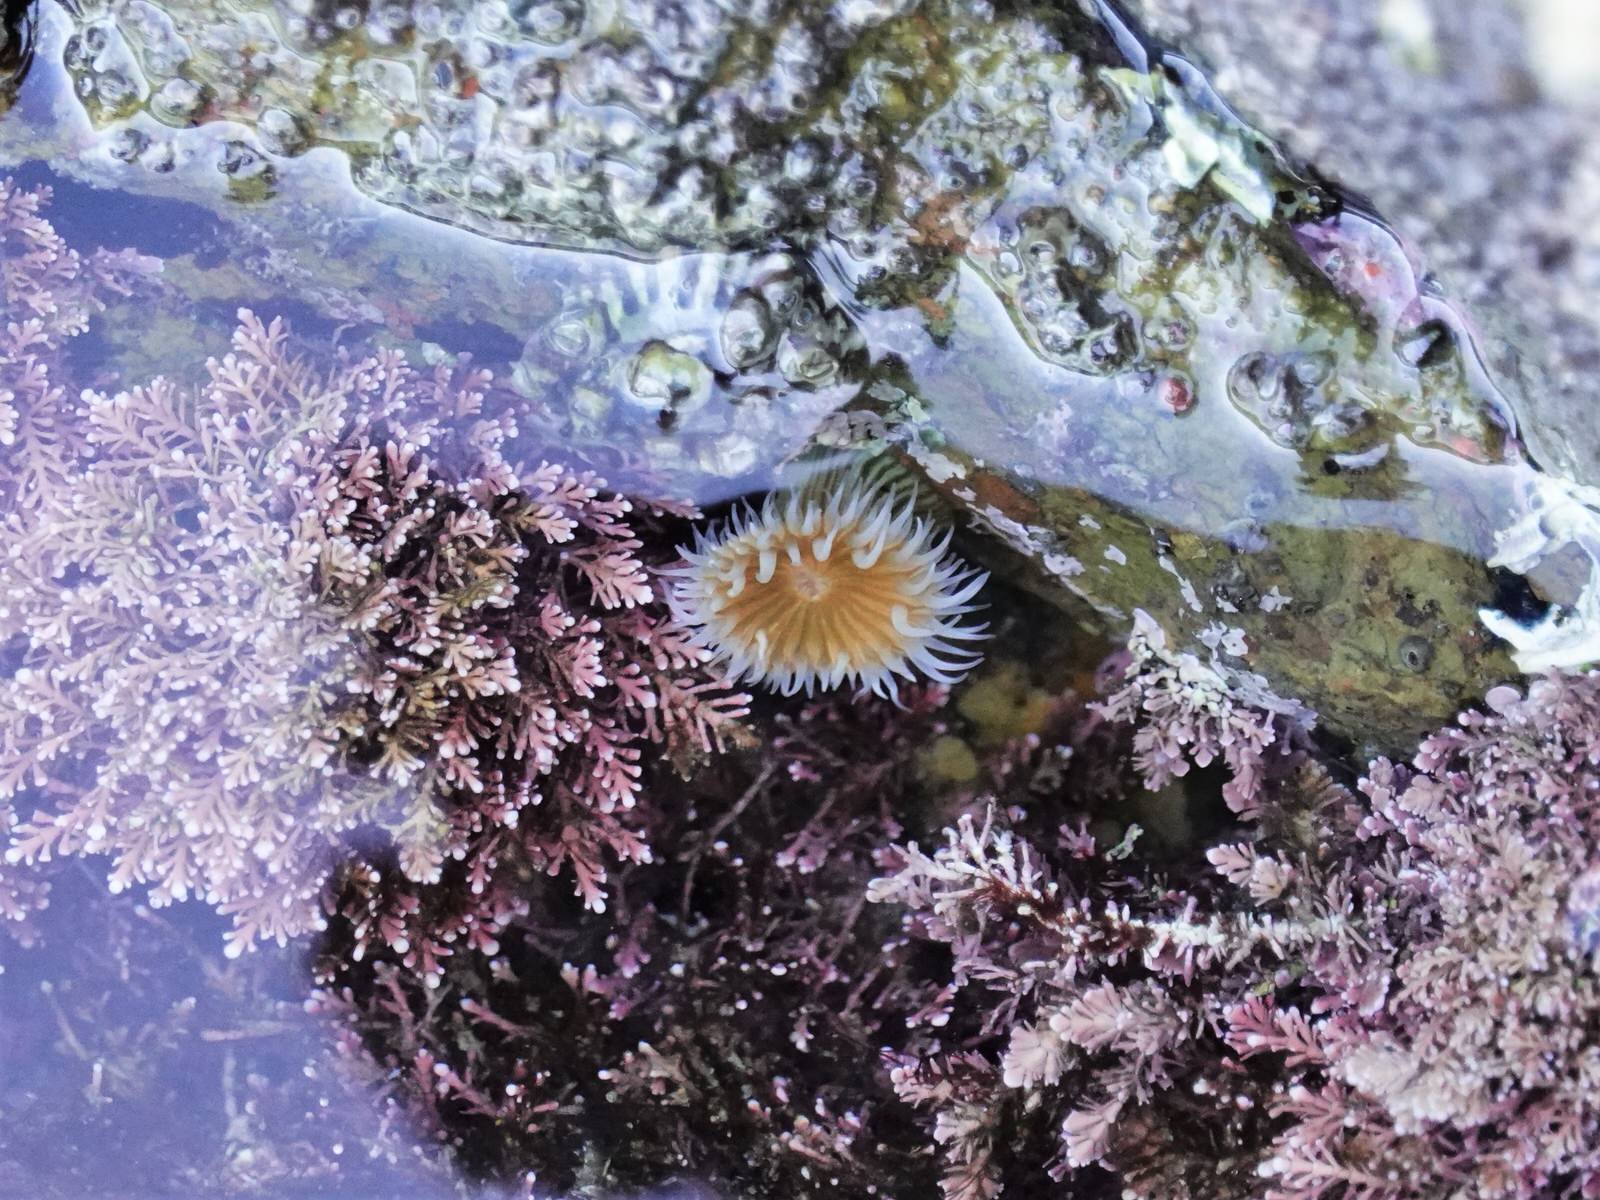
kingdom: Animalia
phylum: Cnidaria
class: Anthozoa
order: Actiniaria
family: Sagartiidae
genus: Anthothoe
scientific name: Anthothoe albocincta
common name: Orange striped anemone
